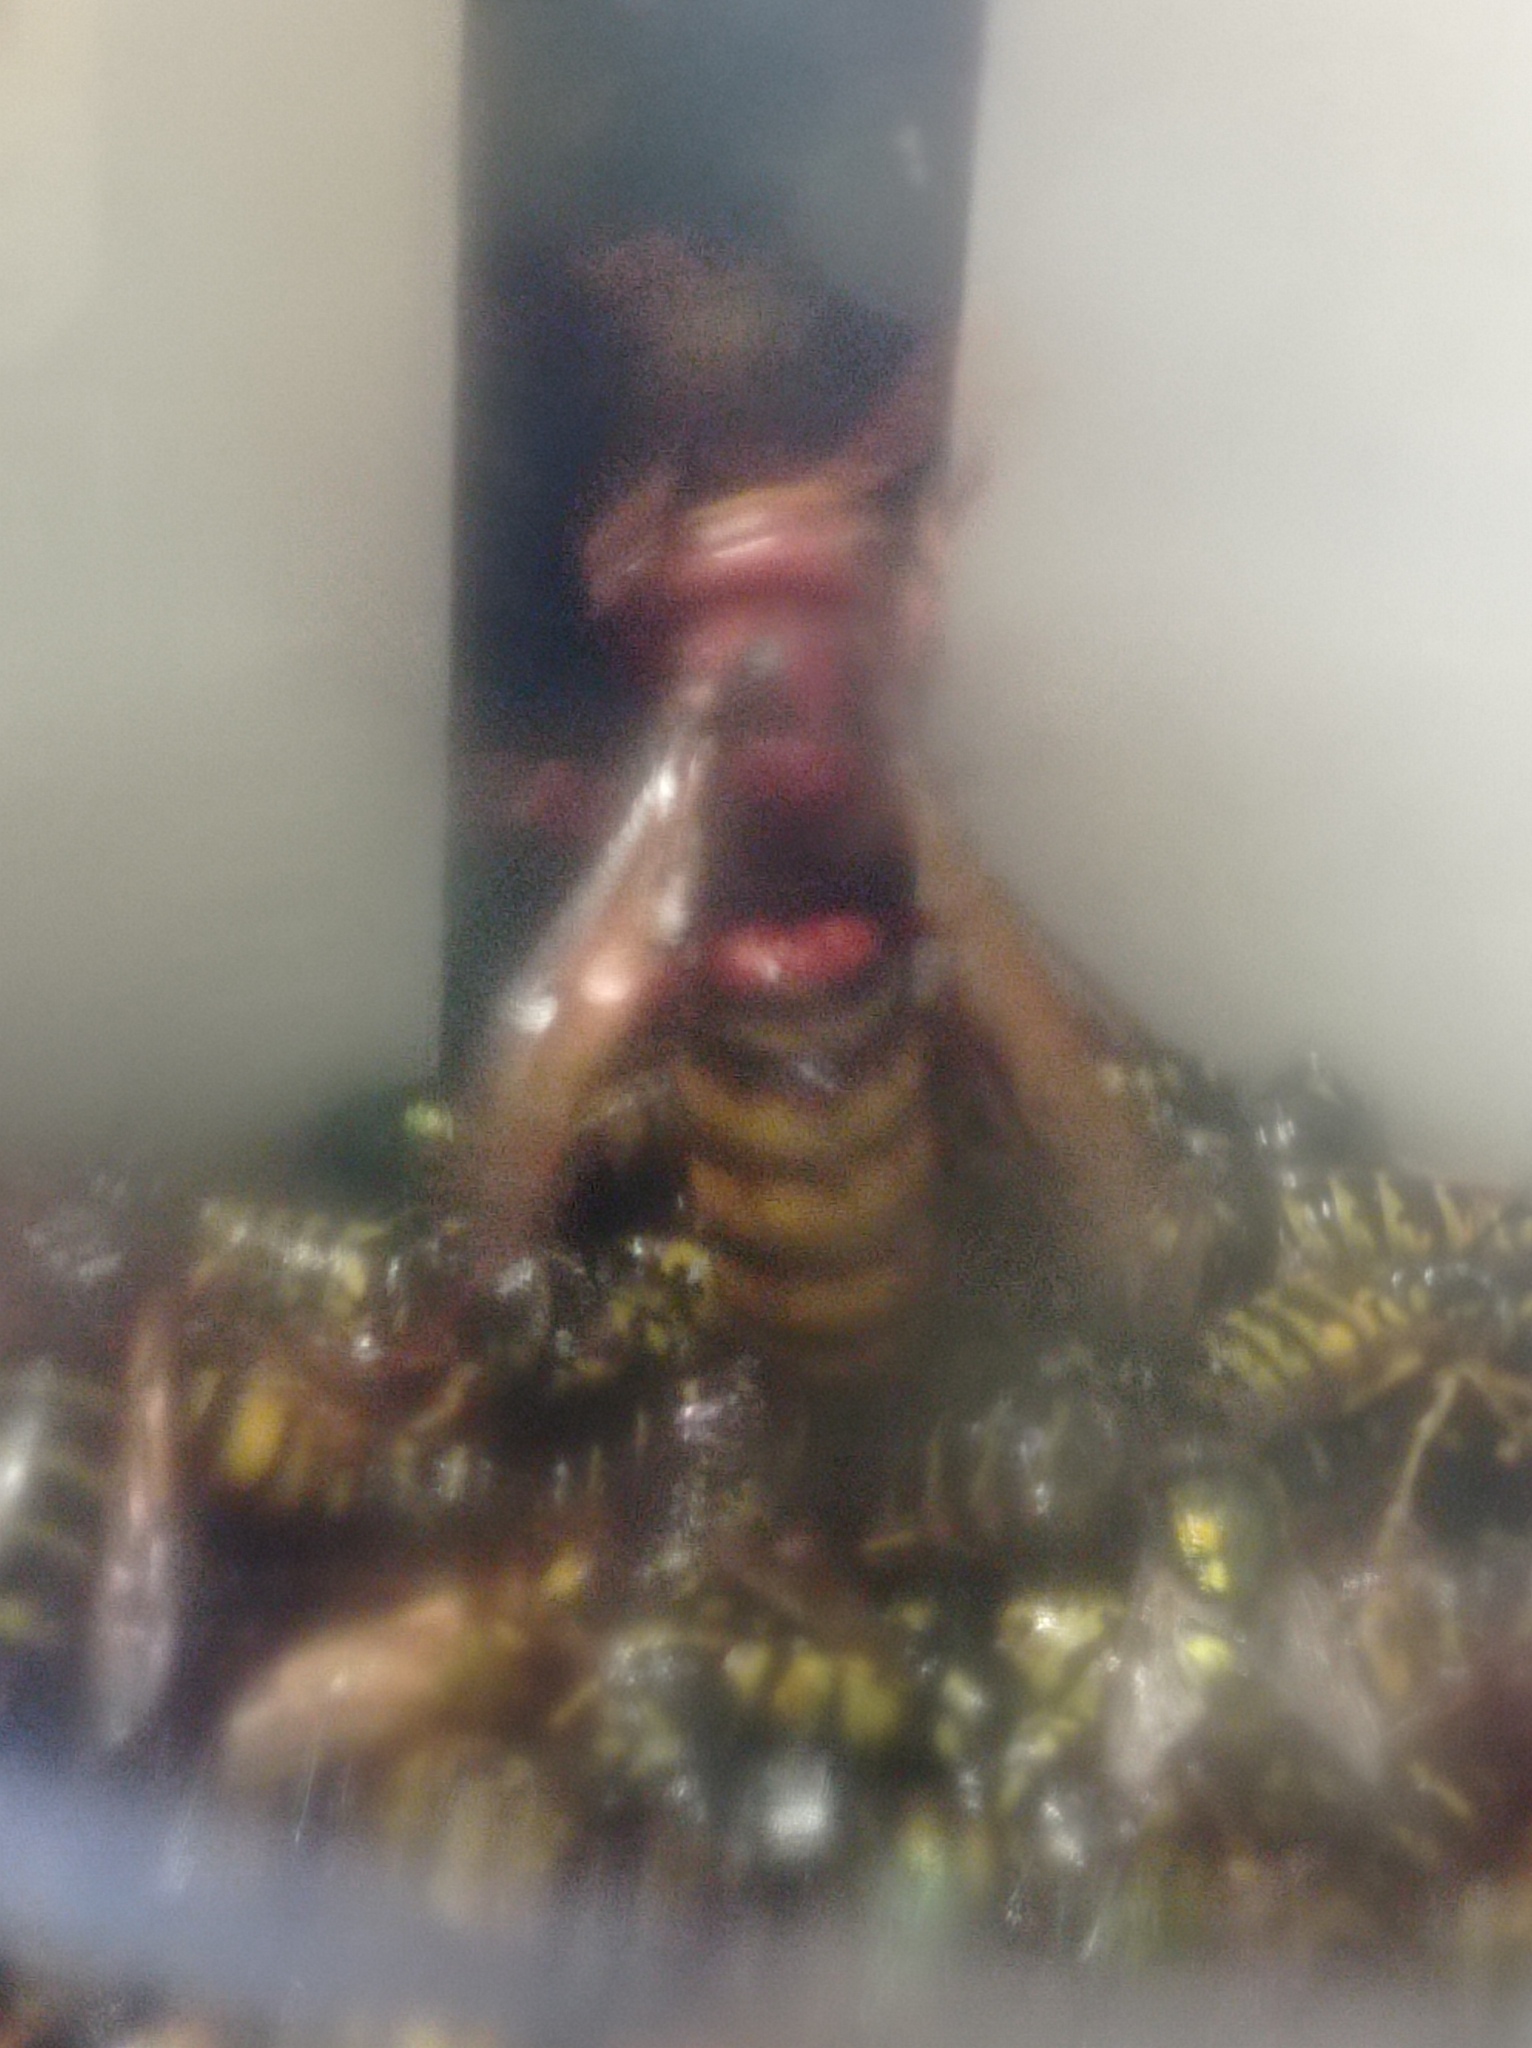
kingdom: Animalia
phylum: Arthropoda
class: Insecta
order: Hymenoptera
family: Vespidae
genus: Vespa
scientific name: Vespa crabro
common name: Hornet
